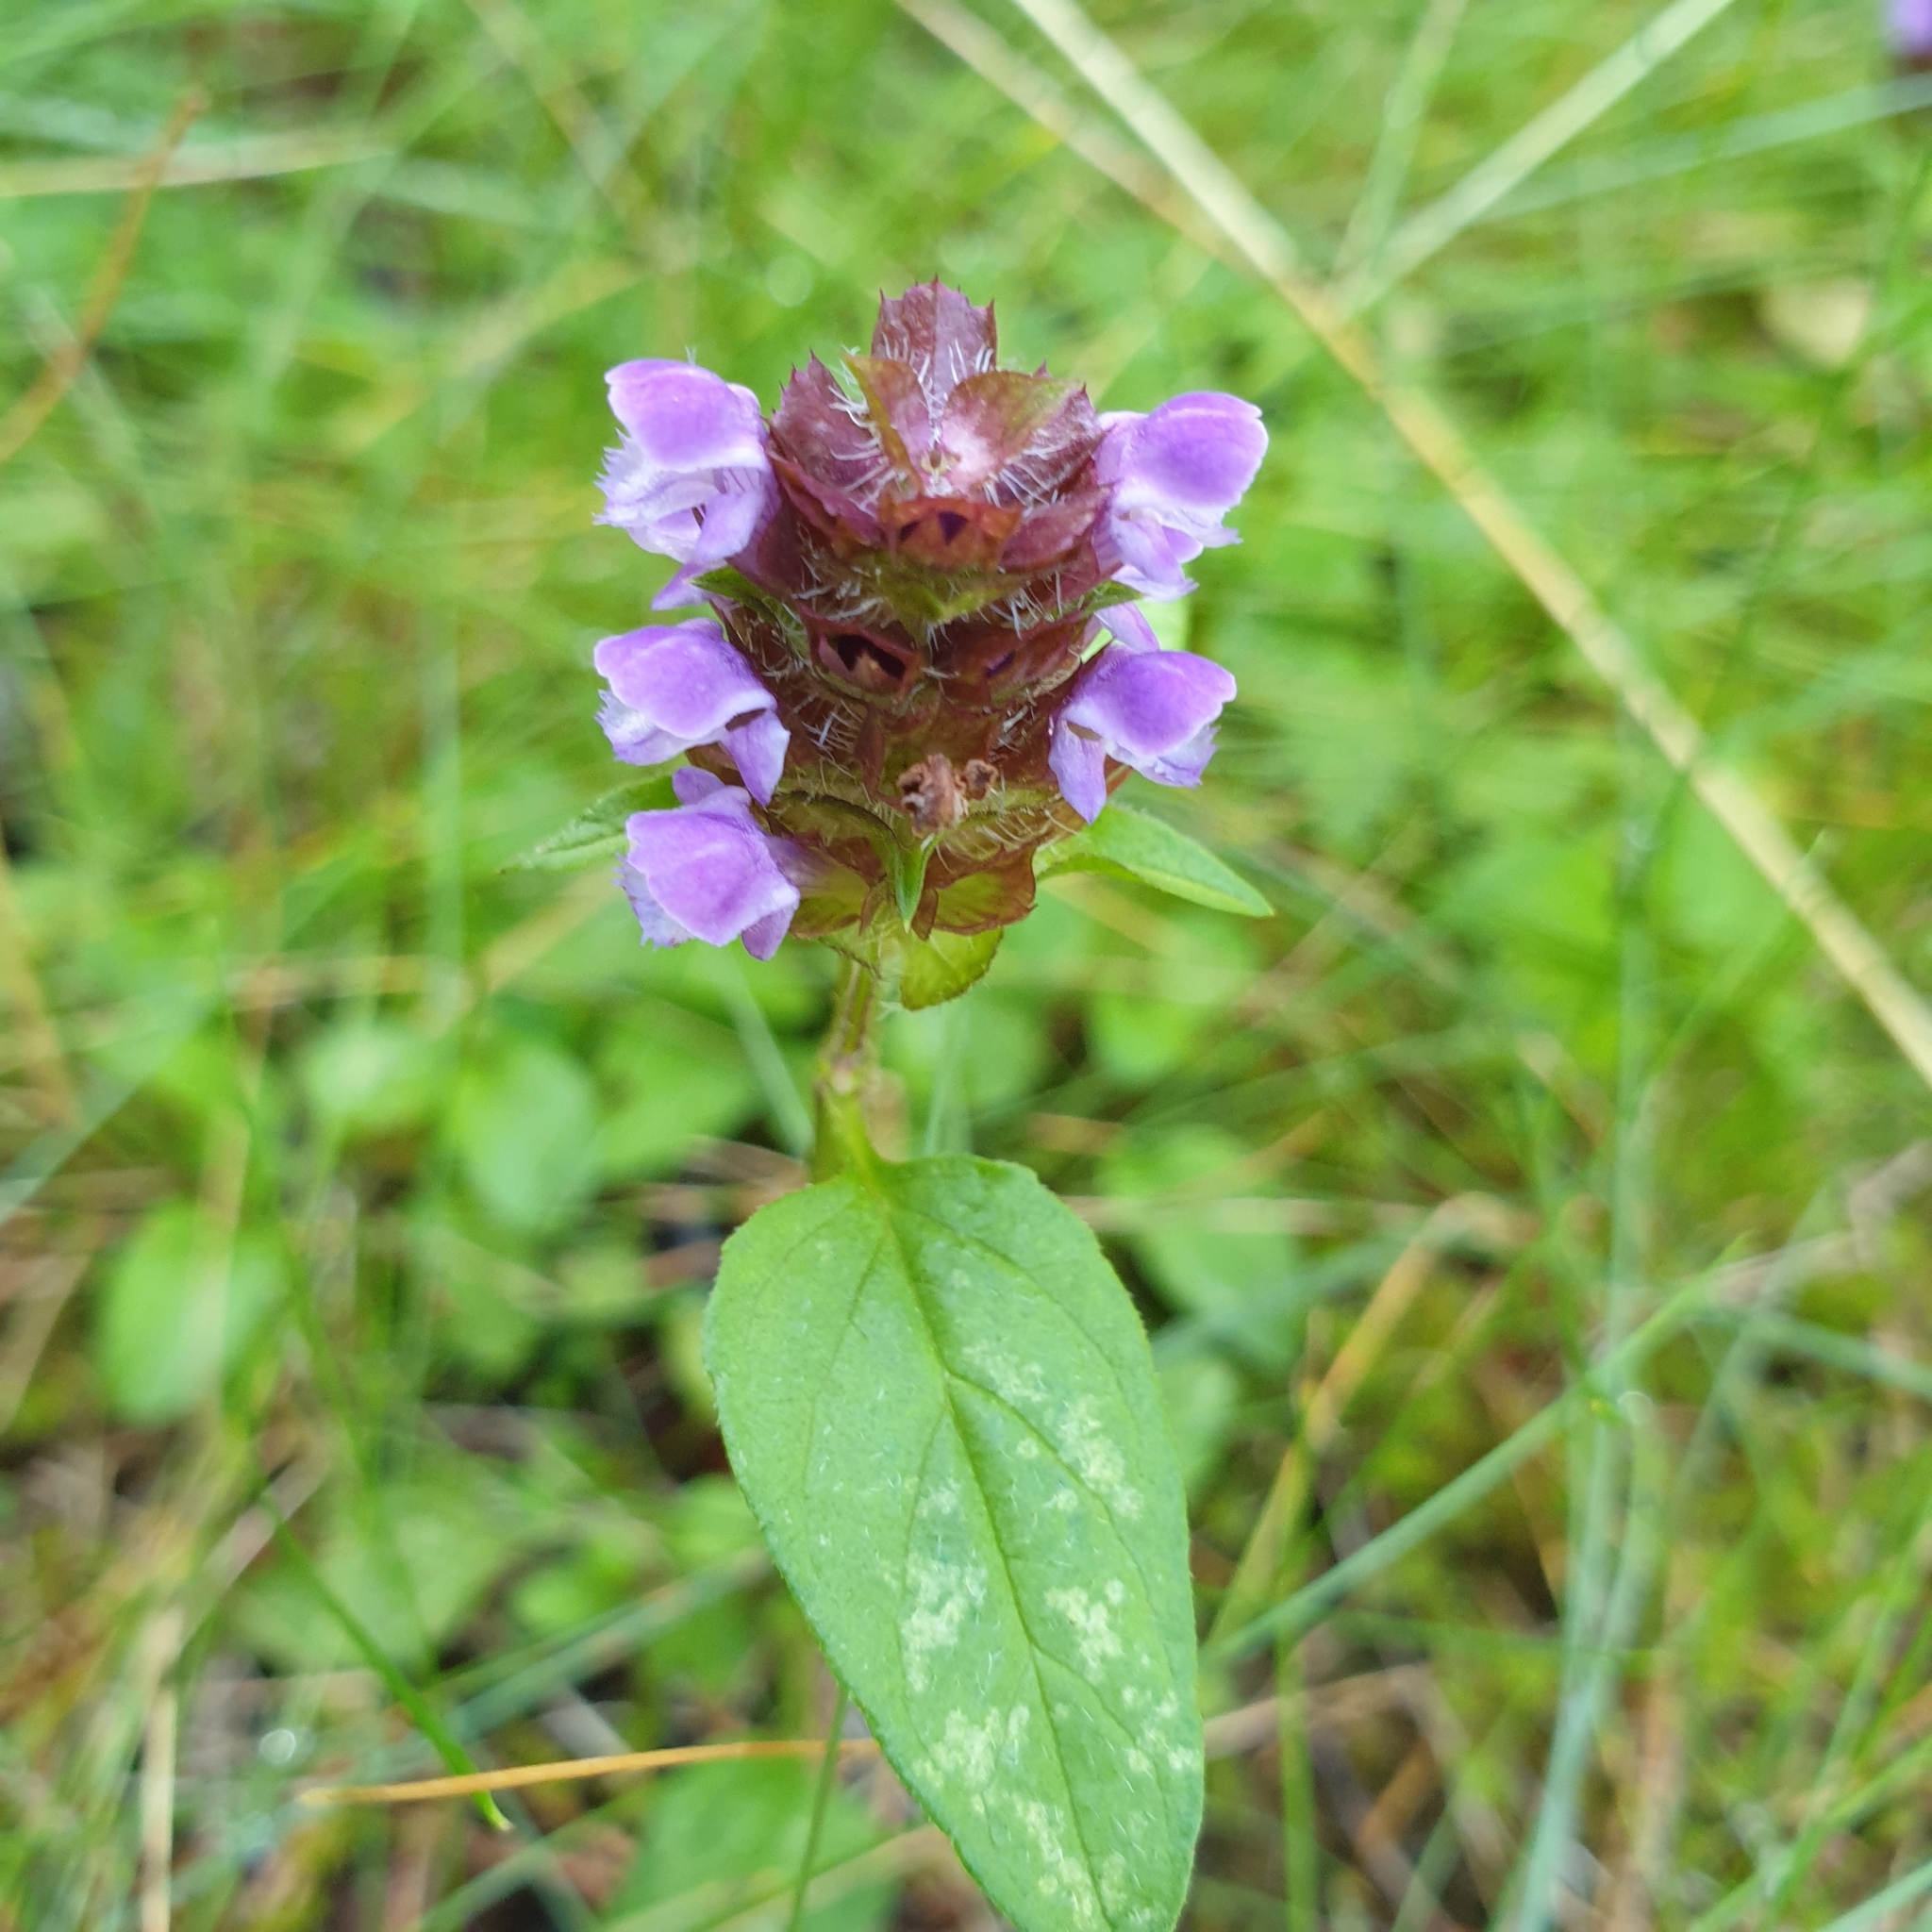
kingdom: Plantae
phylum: Tracheophyta
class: Magnoliopsida
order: Lamiales
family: Lamiaceae
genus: Prunella
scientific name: Prunella vulgaris
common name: Heal-all
